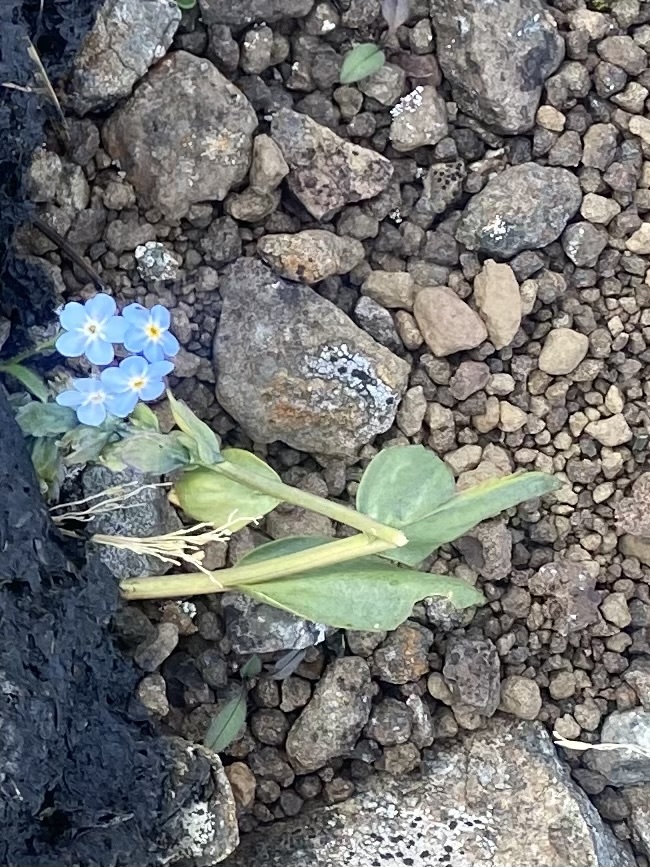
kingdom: Plantae
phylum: Tracheophyta
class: Magnoliopsida
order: Boraginales
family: Boraginaceae
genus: Myosotis
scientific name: Myosotis asiatica
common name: Asian forget-me-not
